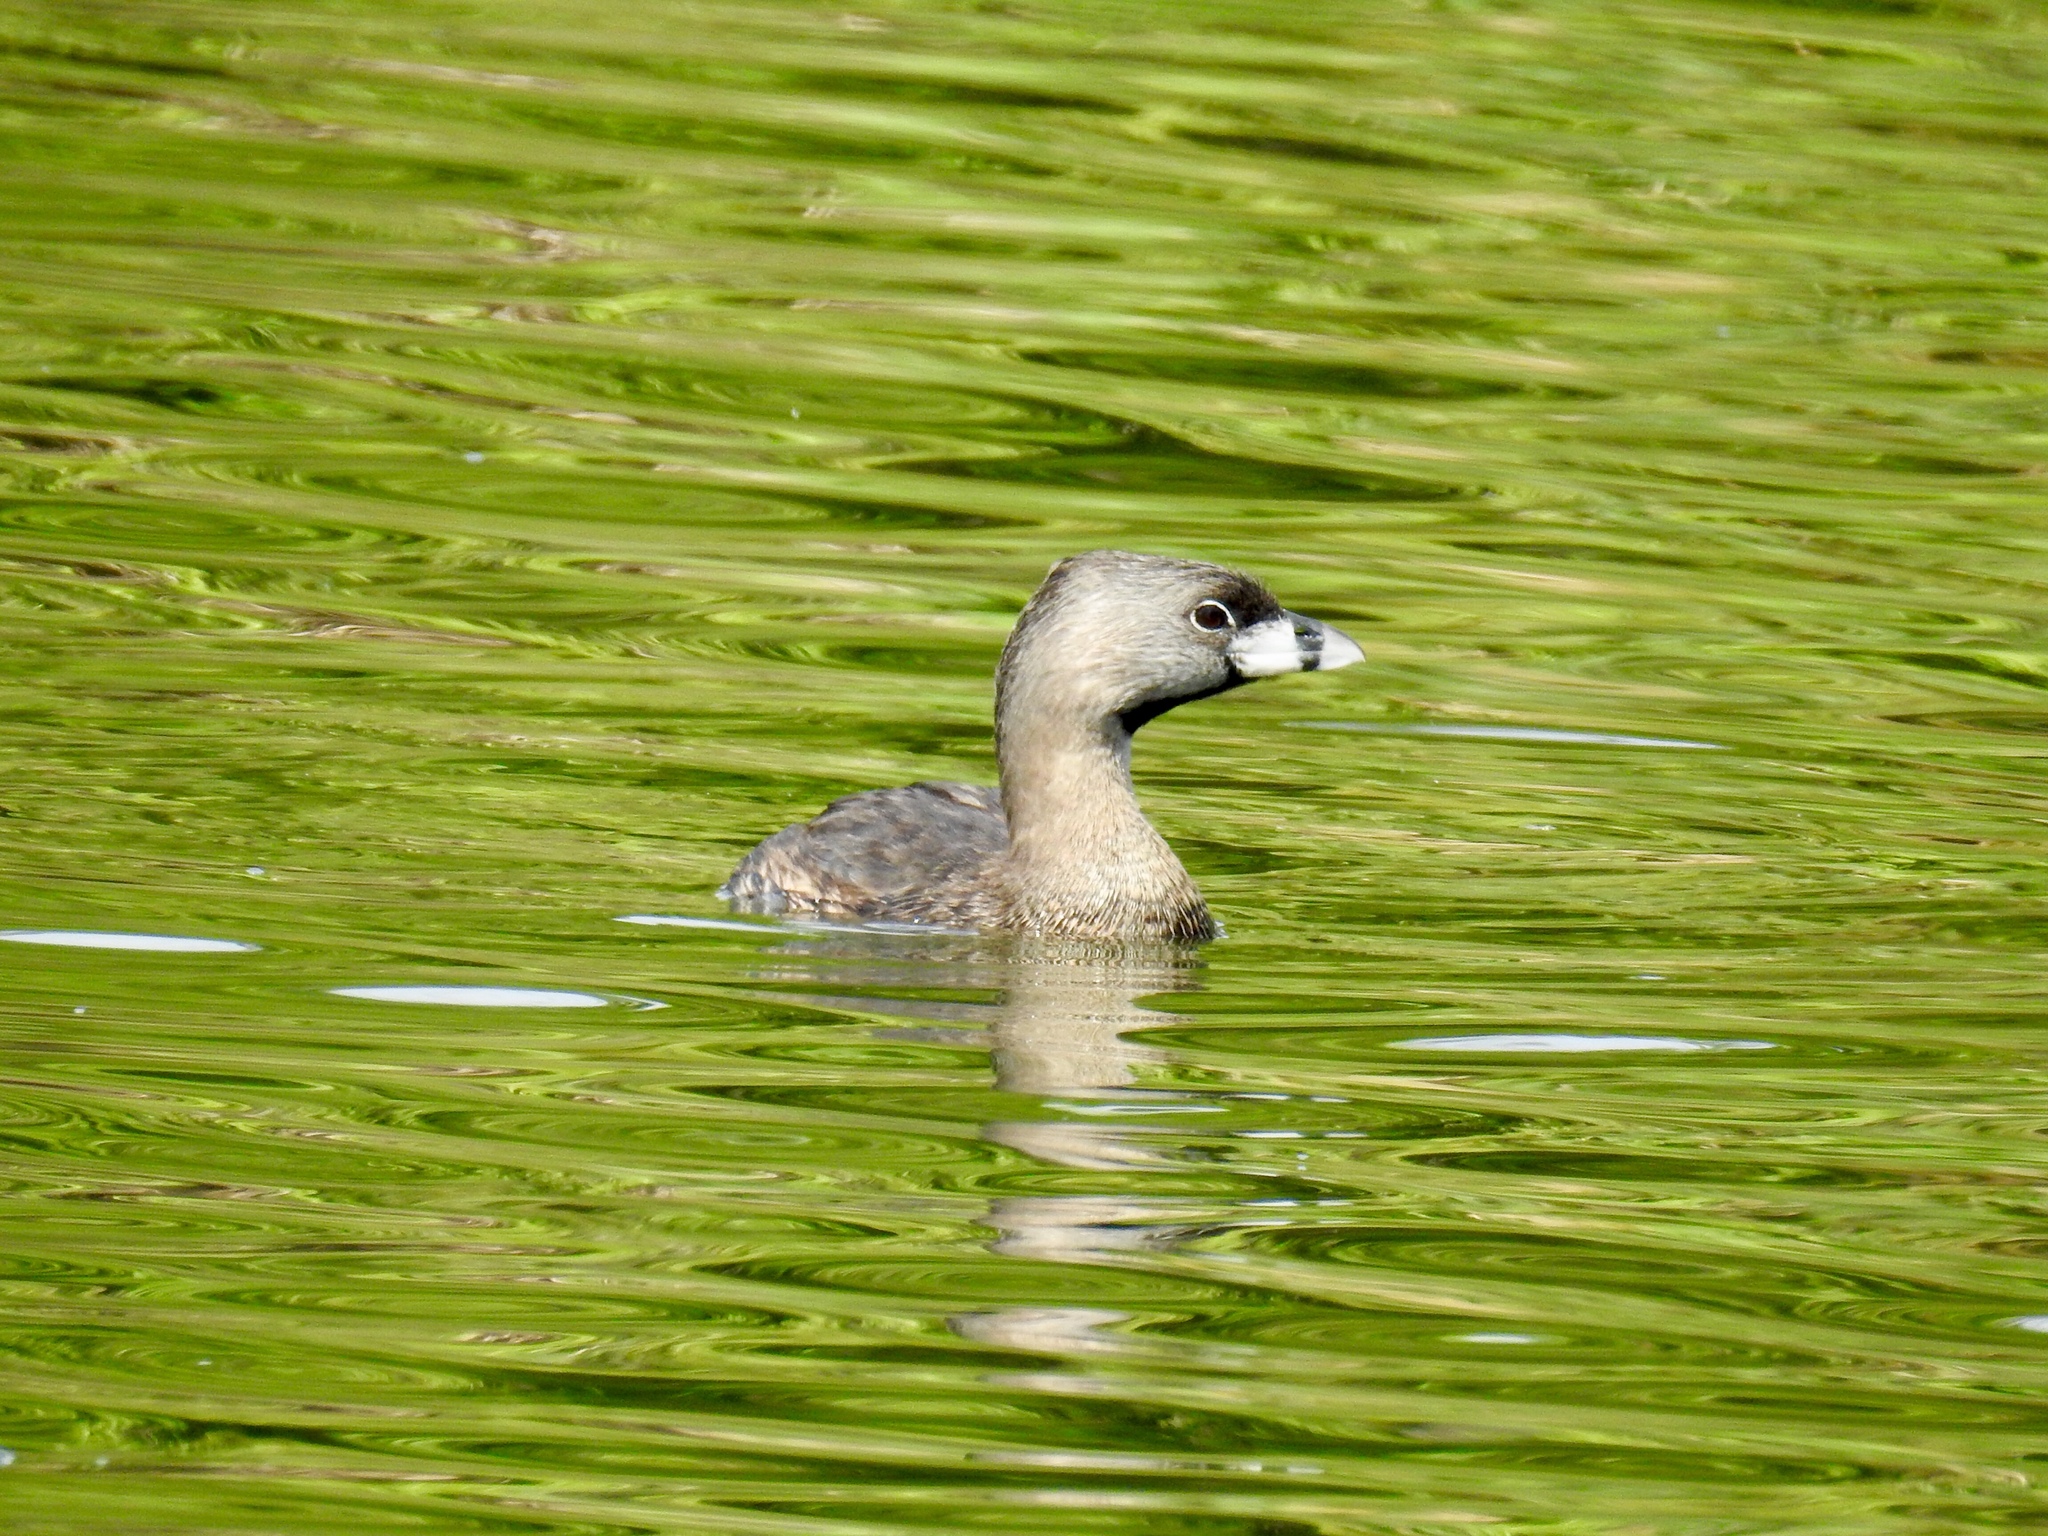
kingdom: Animalia
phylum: Chordata
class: Aves
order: Podicipediformes
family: Podicipedidae
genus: Podilymbus
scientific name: Podilymbus podiceps
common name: Pied-billed grebe
